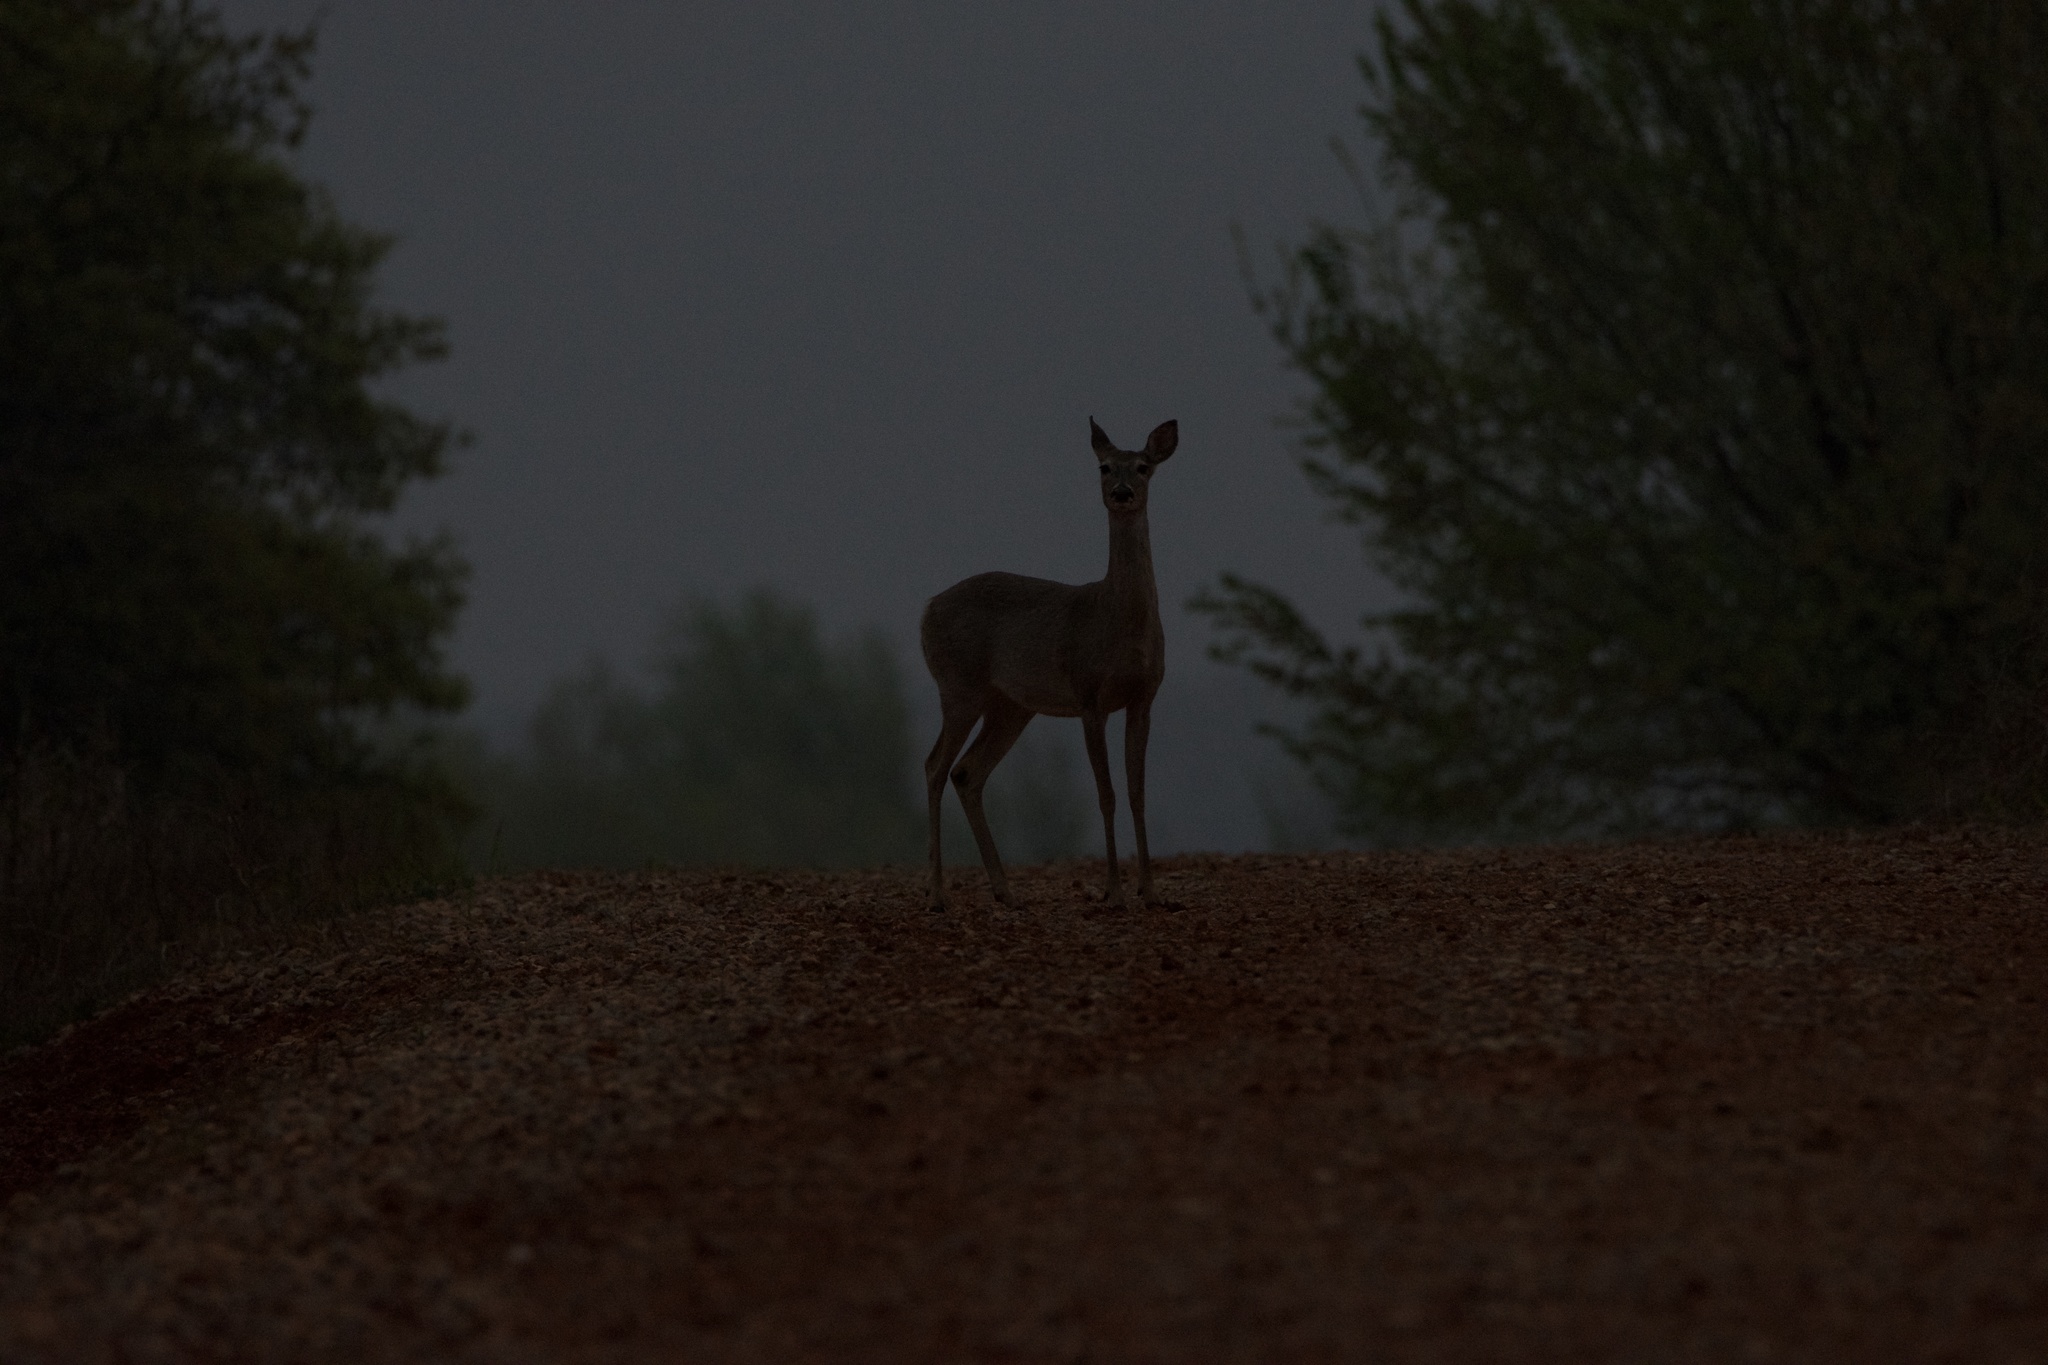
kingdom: Animalia
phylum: Chordata
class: Mammalia
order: Artiodactyla
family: Cervidae
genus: Odocoileus
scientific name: Odocoileus virginianus
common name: White-tailed deer
